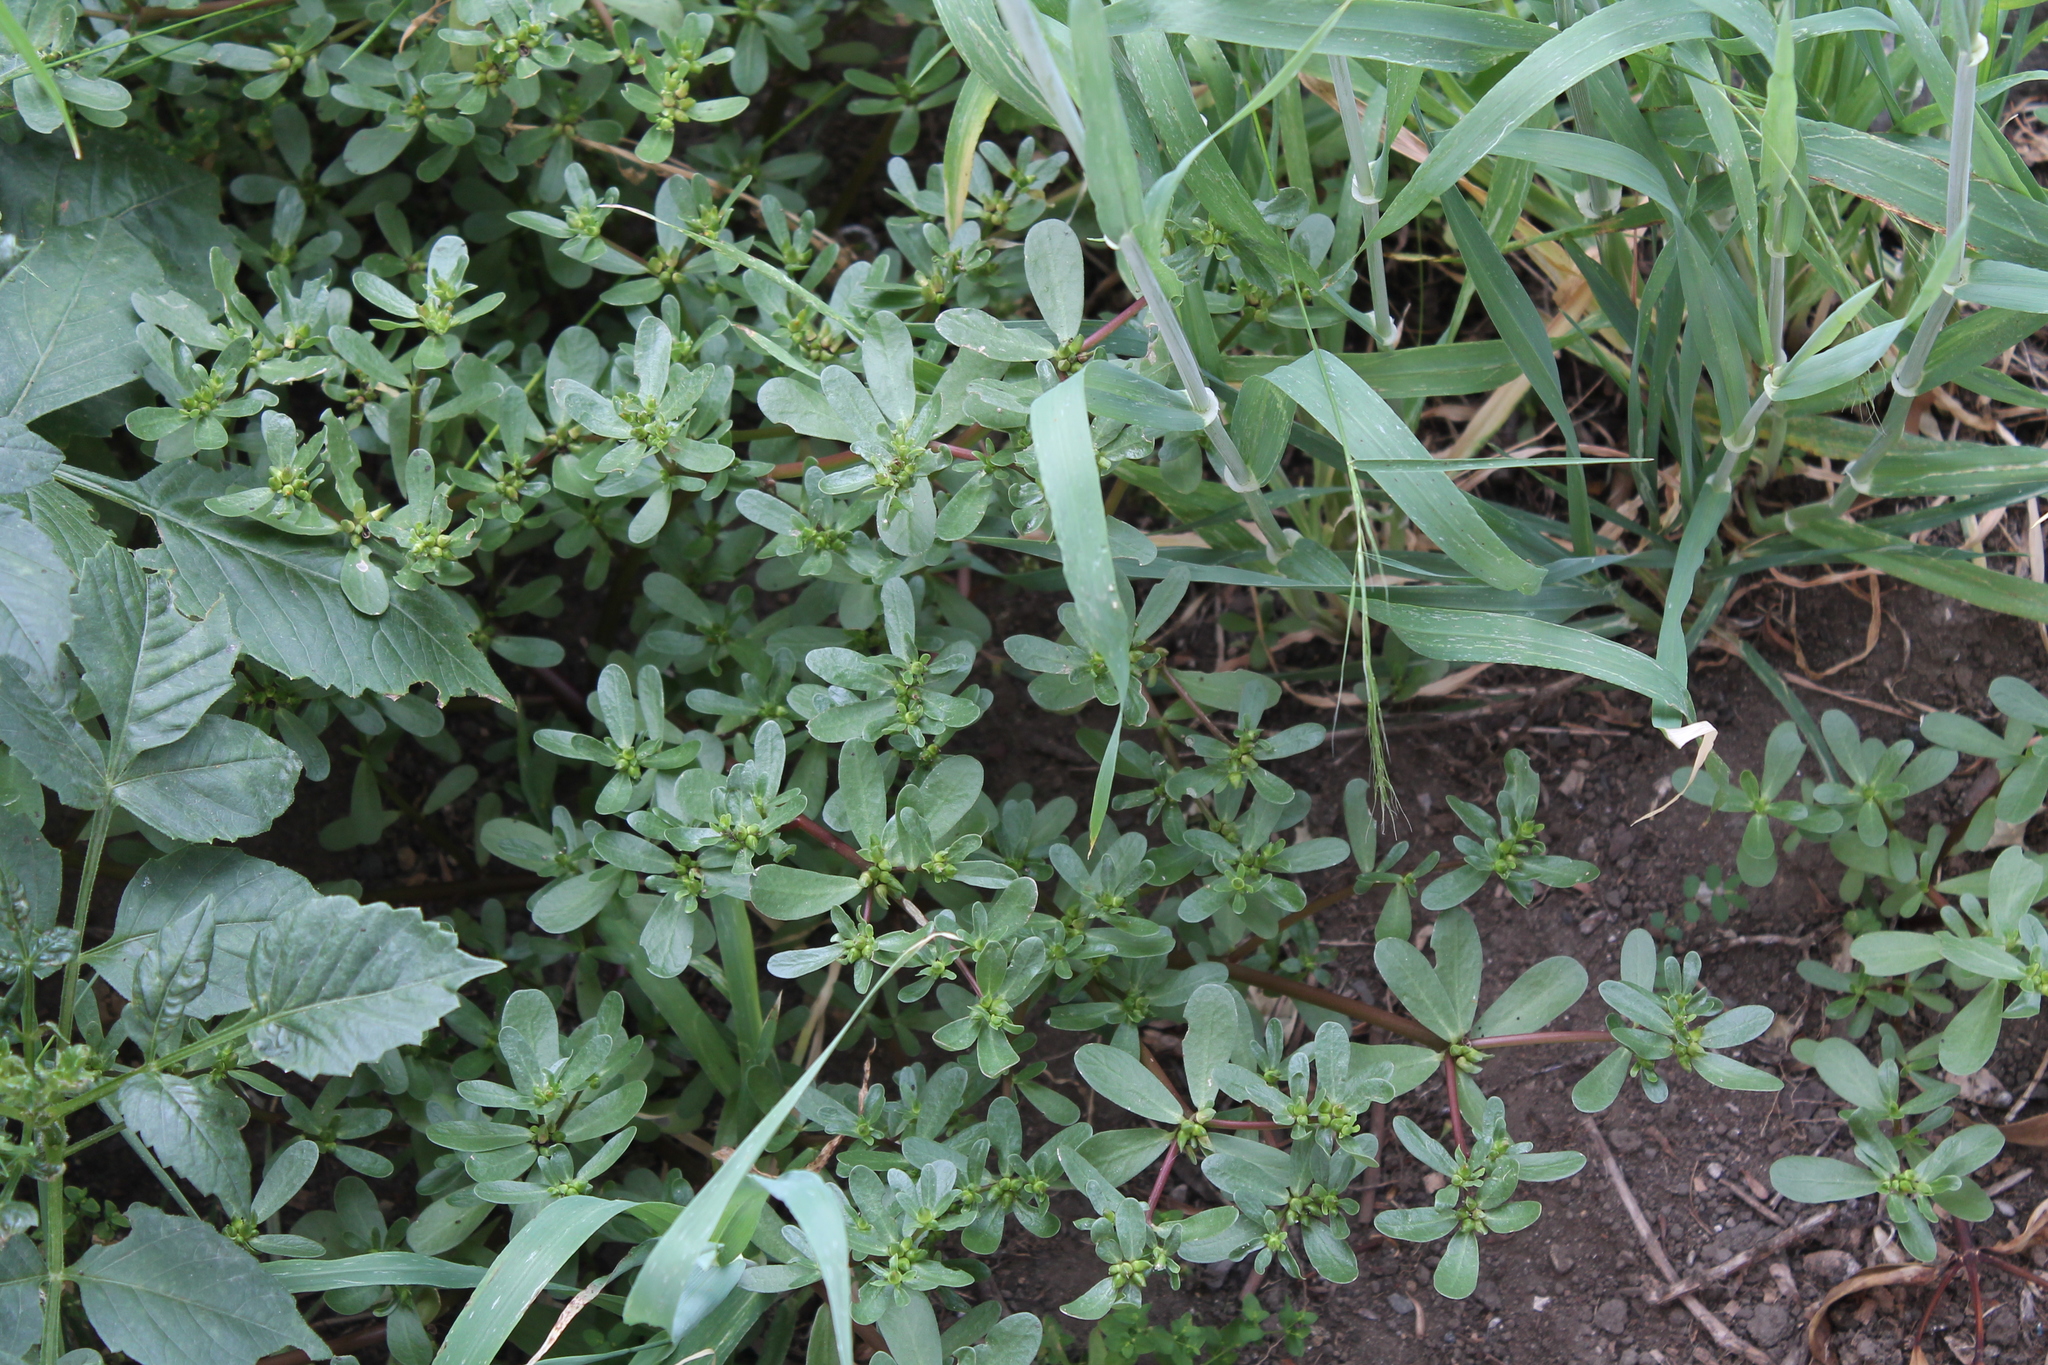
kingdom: Plantae
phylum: Tracheophyta
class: Magnoliopsida
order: Caryophyllales
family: Portulacaceae
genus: Portulaca
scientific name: Portulaca oleracea
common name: Common purslane
